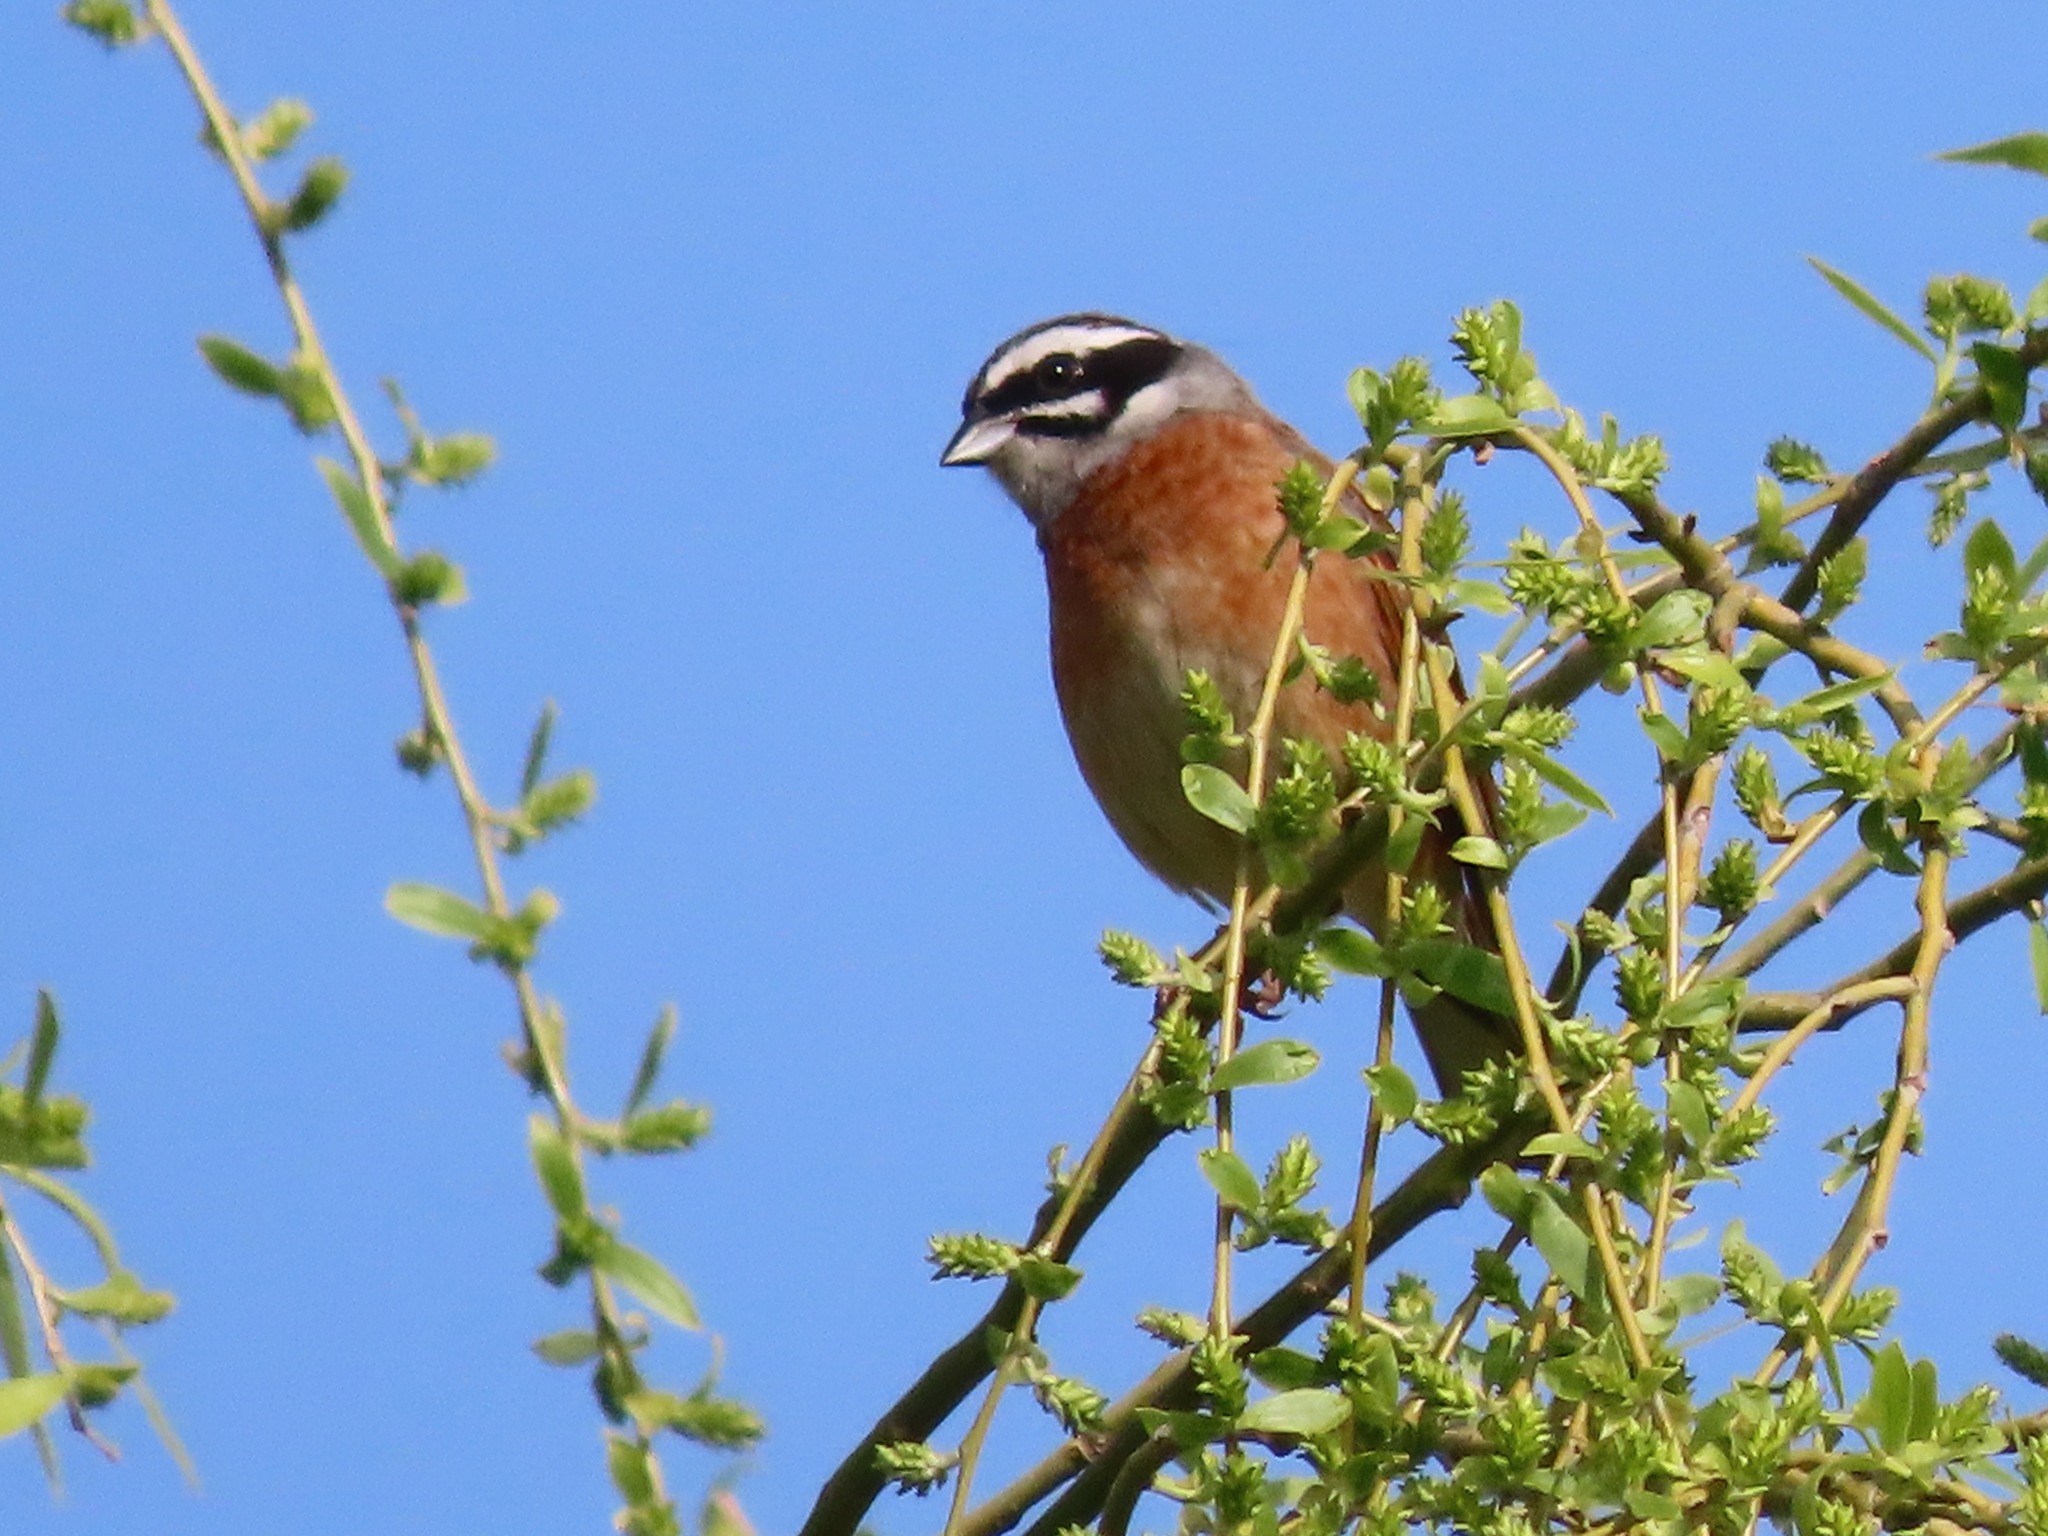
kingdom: Animalia
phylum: Chordata
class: Aves
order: Passeriformes
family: Emberizidae
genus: Emberiza
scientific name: Emberiza cioides
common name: Meadow bunting
